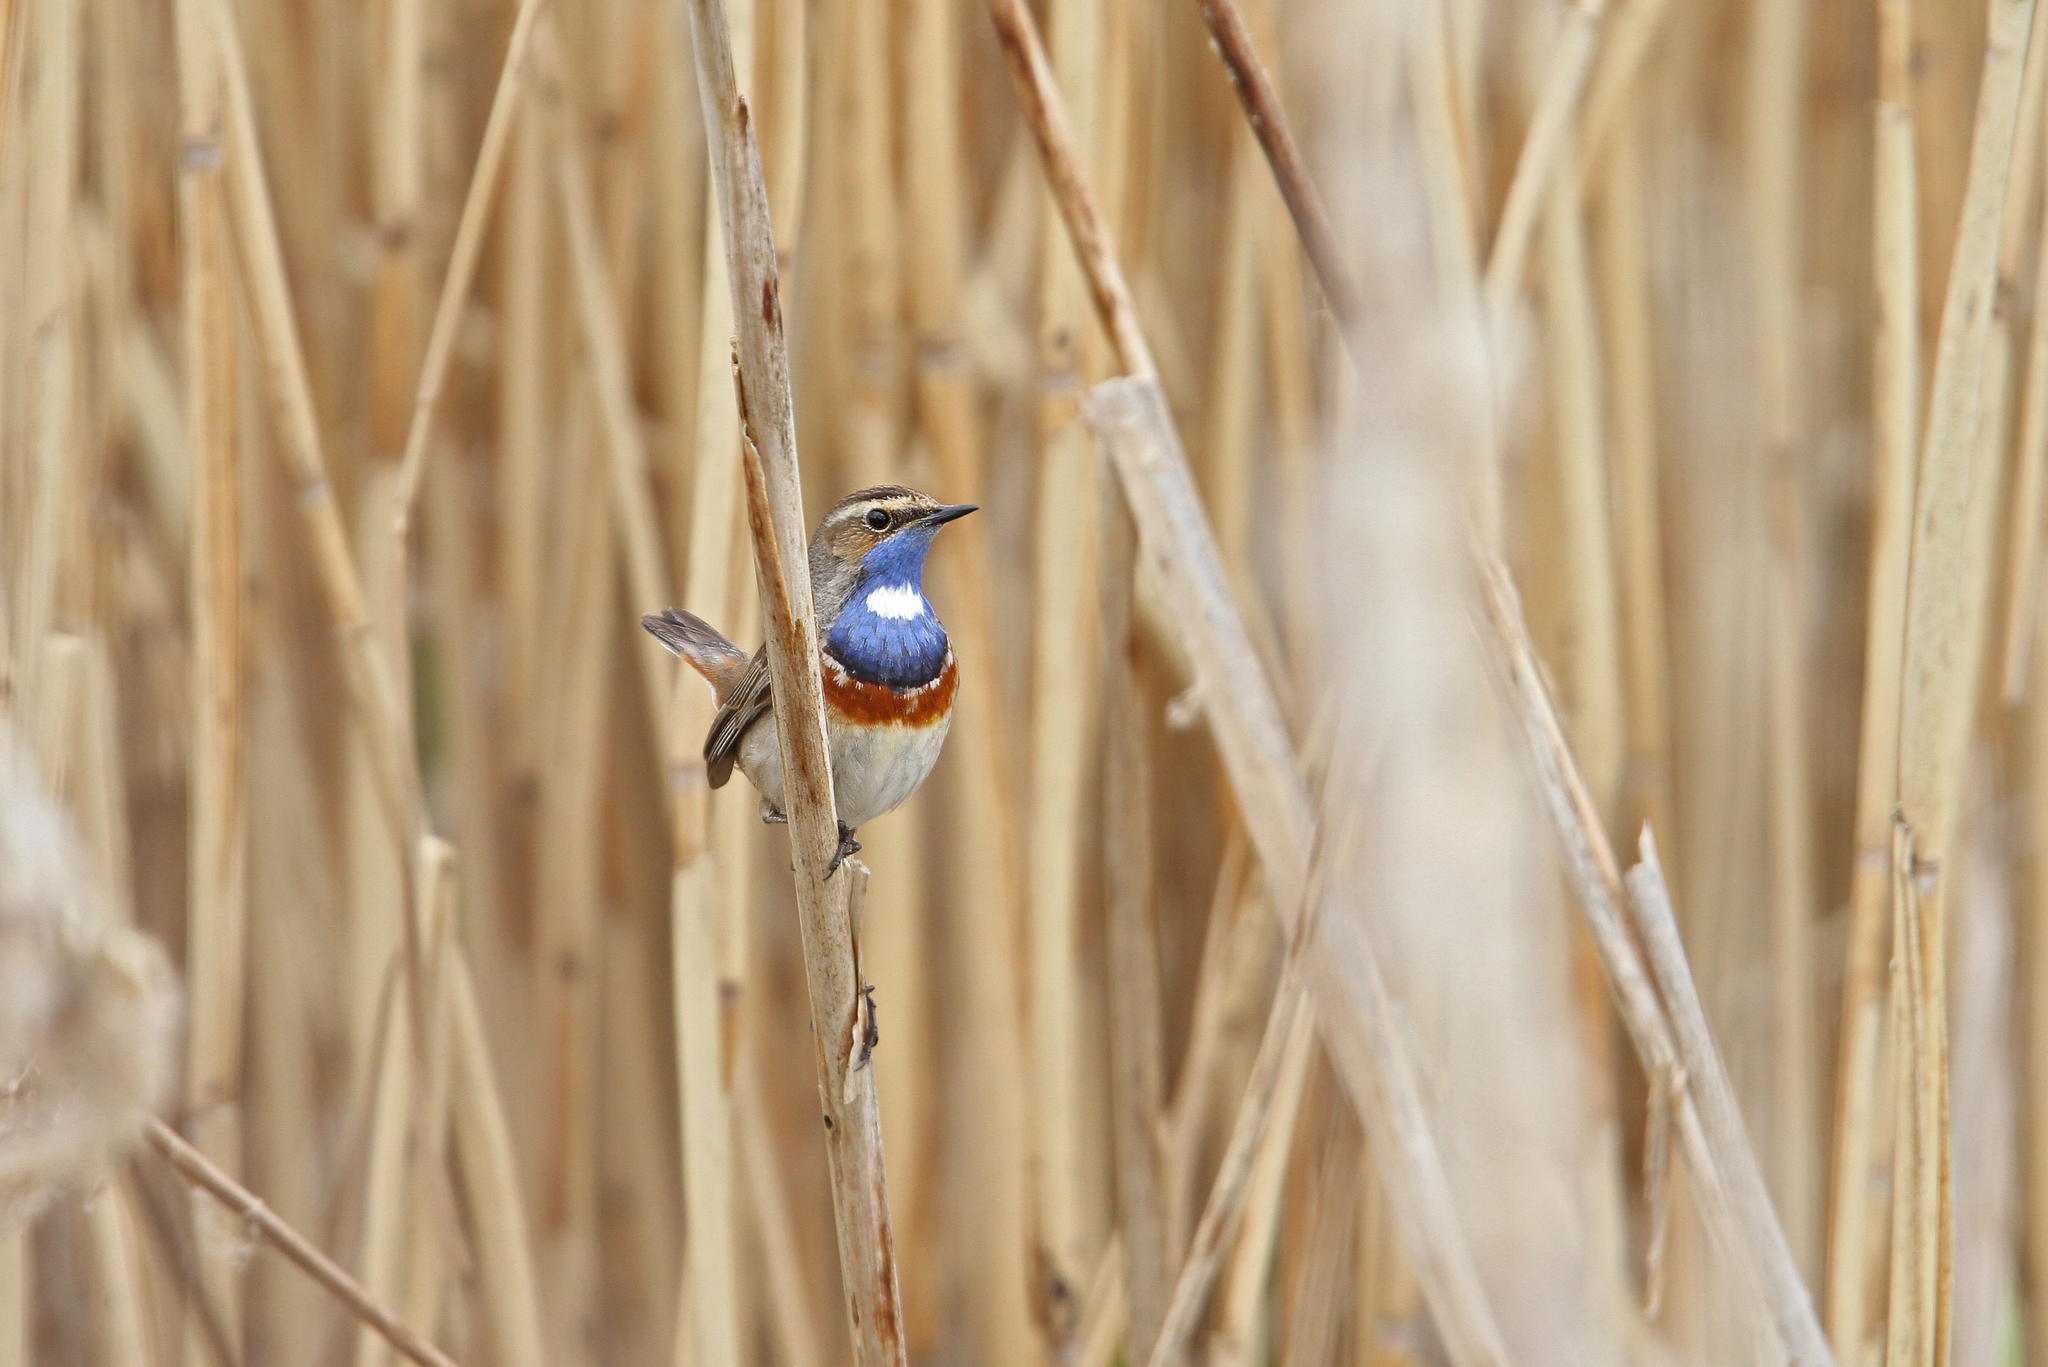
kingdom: Animalia
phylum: Chordata
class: Aves
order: Passeriformes
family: Muscicapidae
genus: Luscinia
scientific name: Luscinia svecica
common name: Bluethroat
